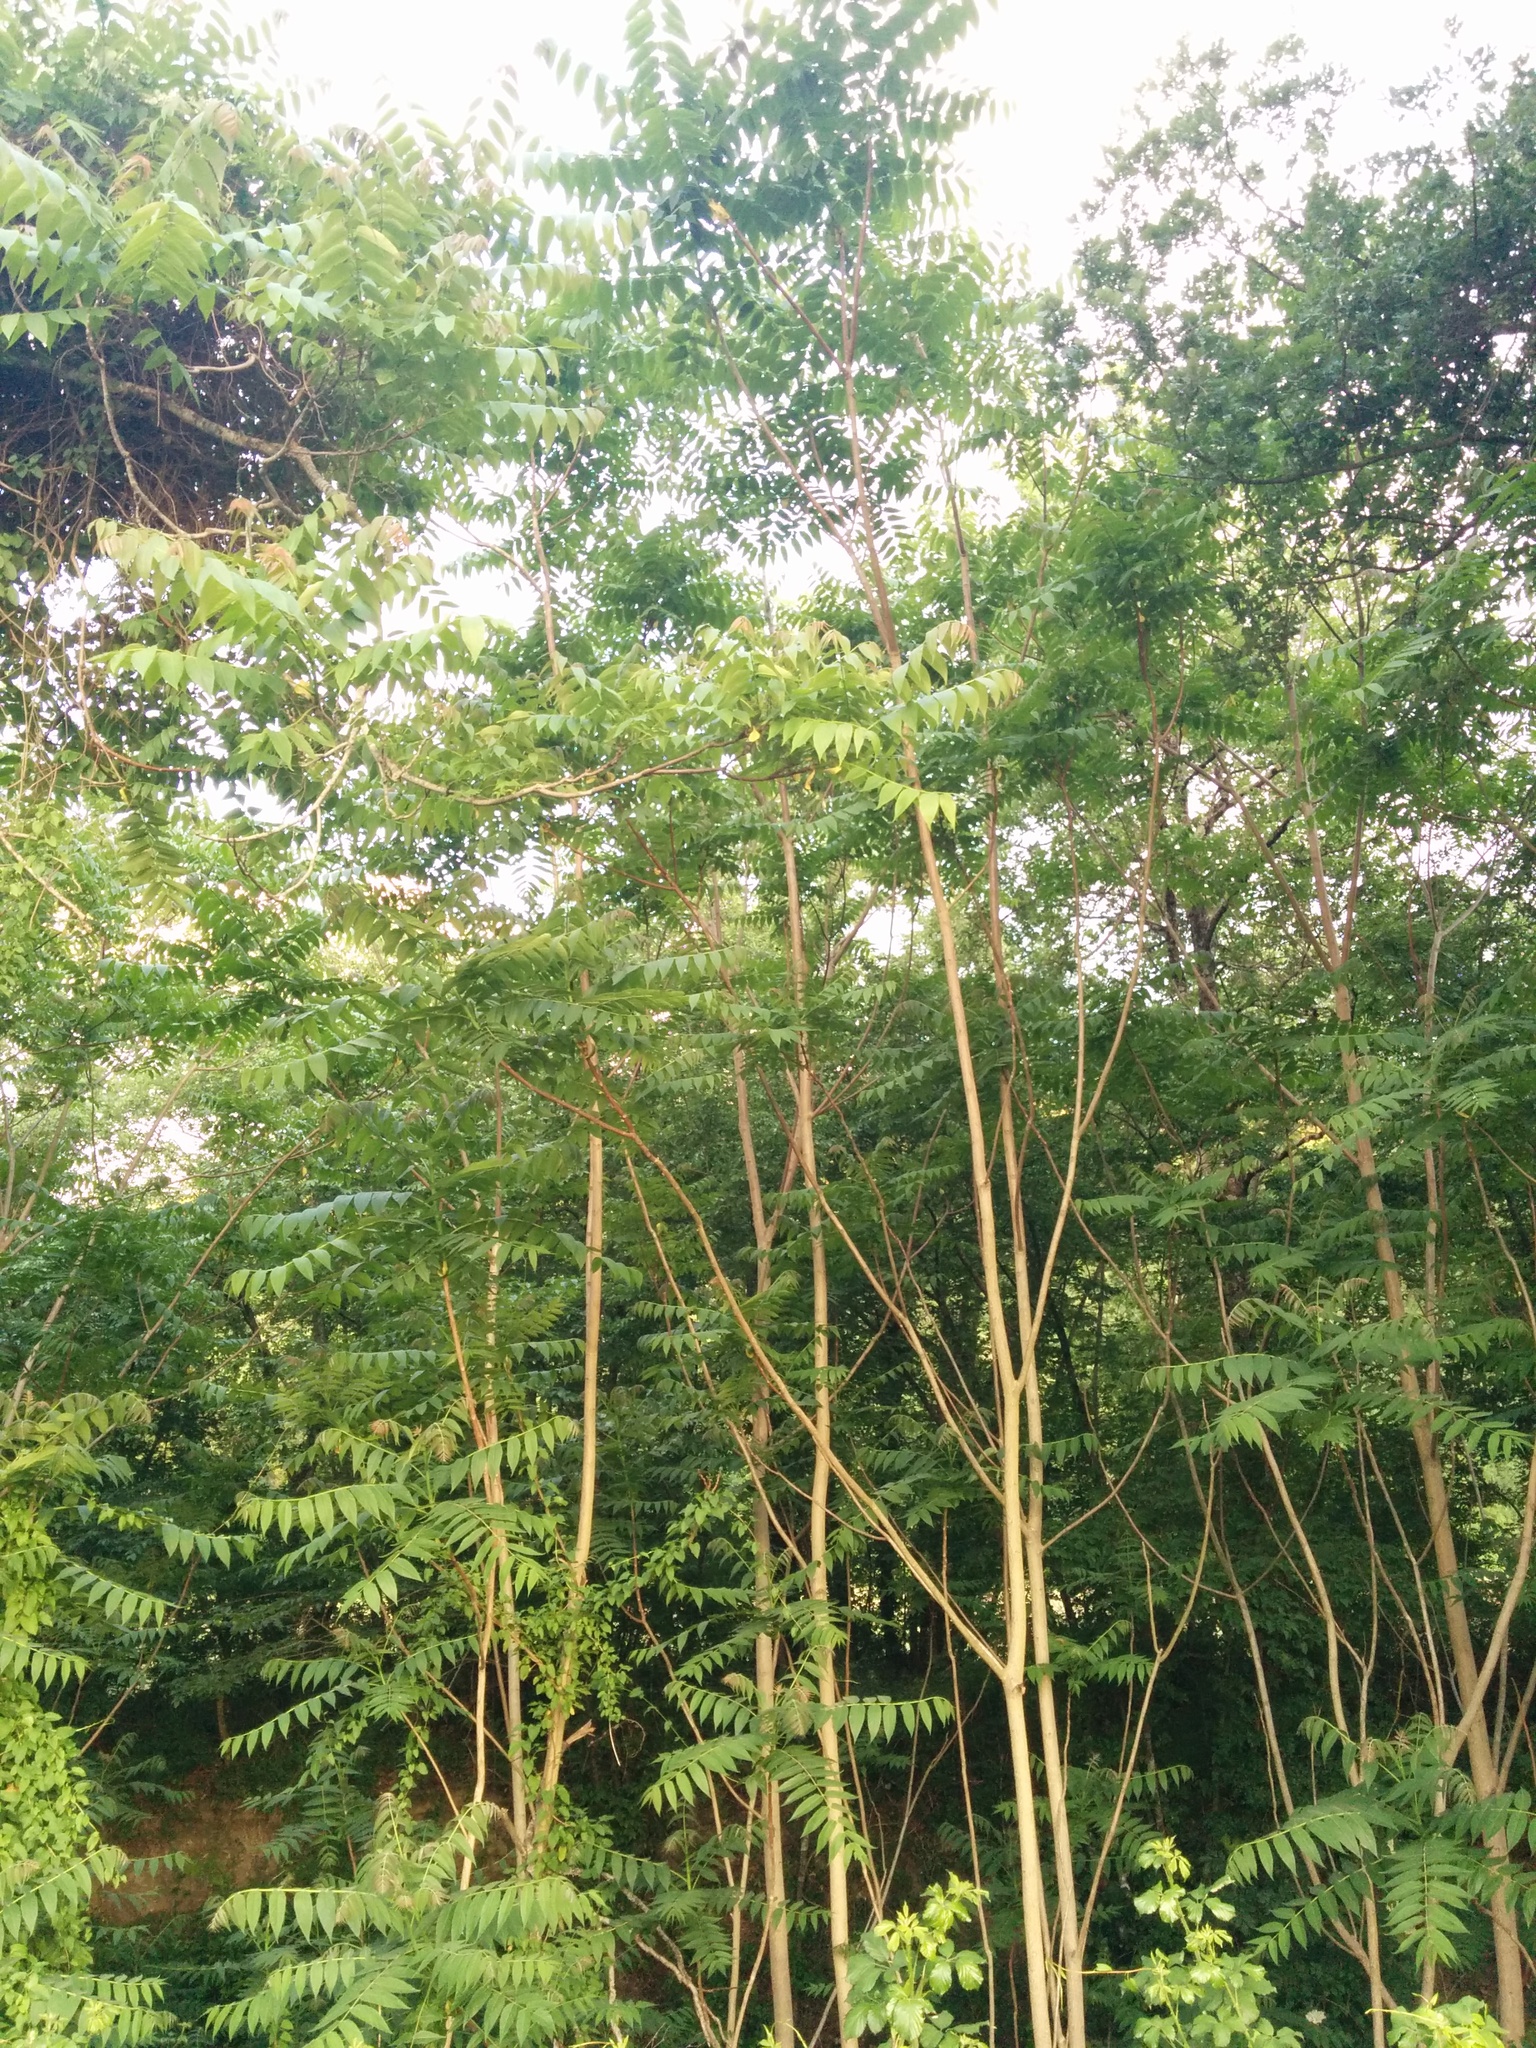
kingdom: Plantae
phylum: Tracheophyta
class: Magnoliopsida
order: Sapindales
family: Simaroubaceae
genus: Ailanthus
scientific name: Ailanthus altissima
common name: Tree-of-heaven
